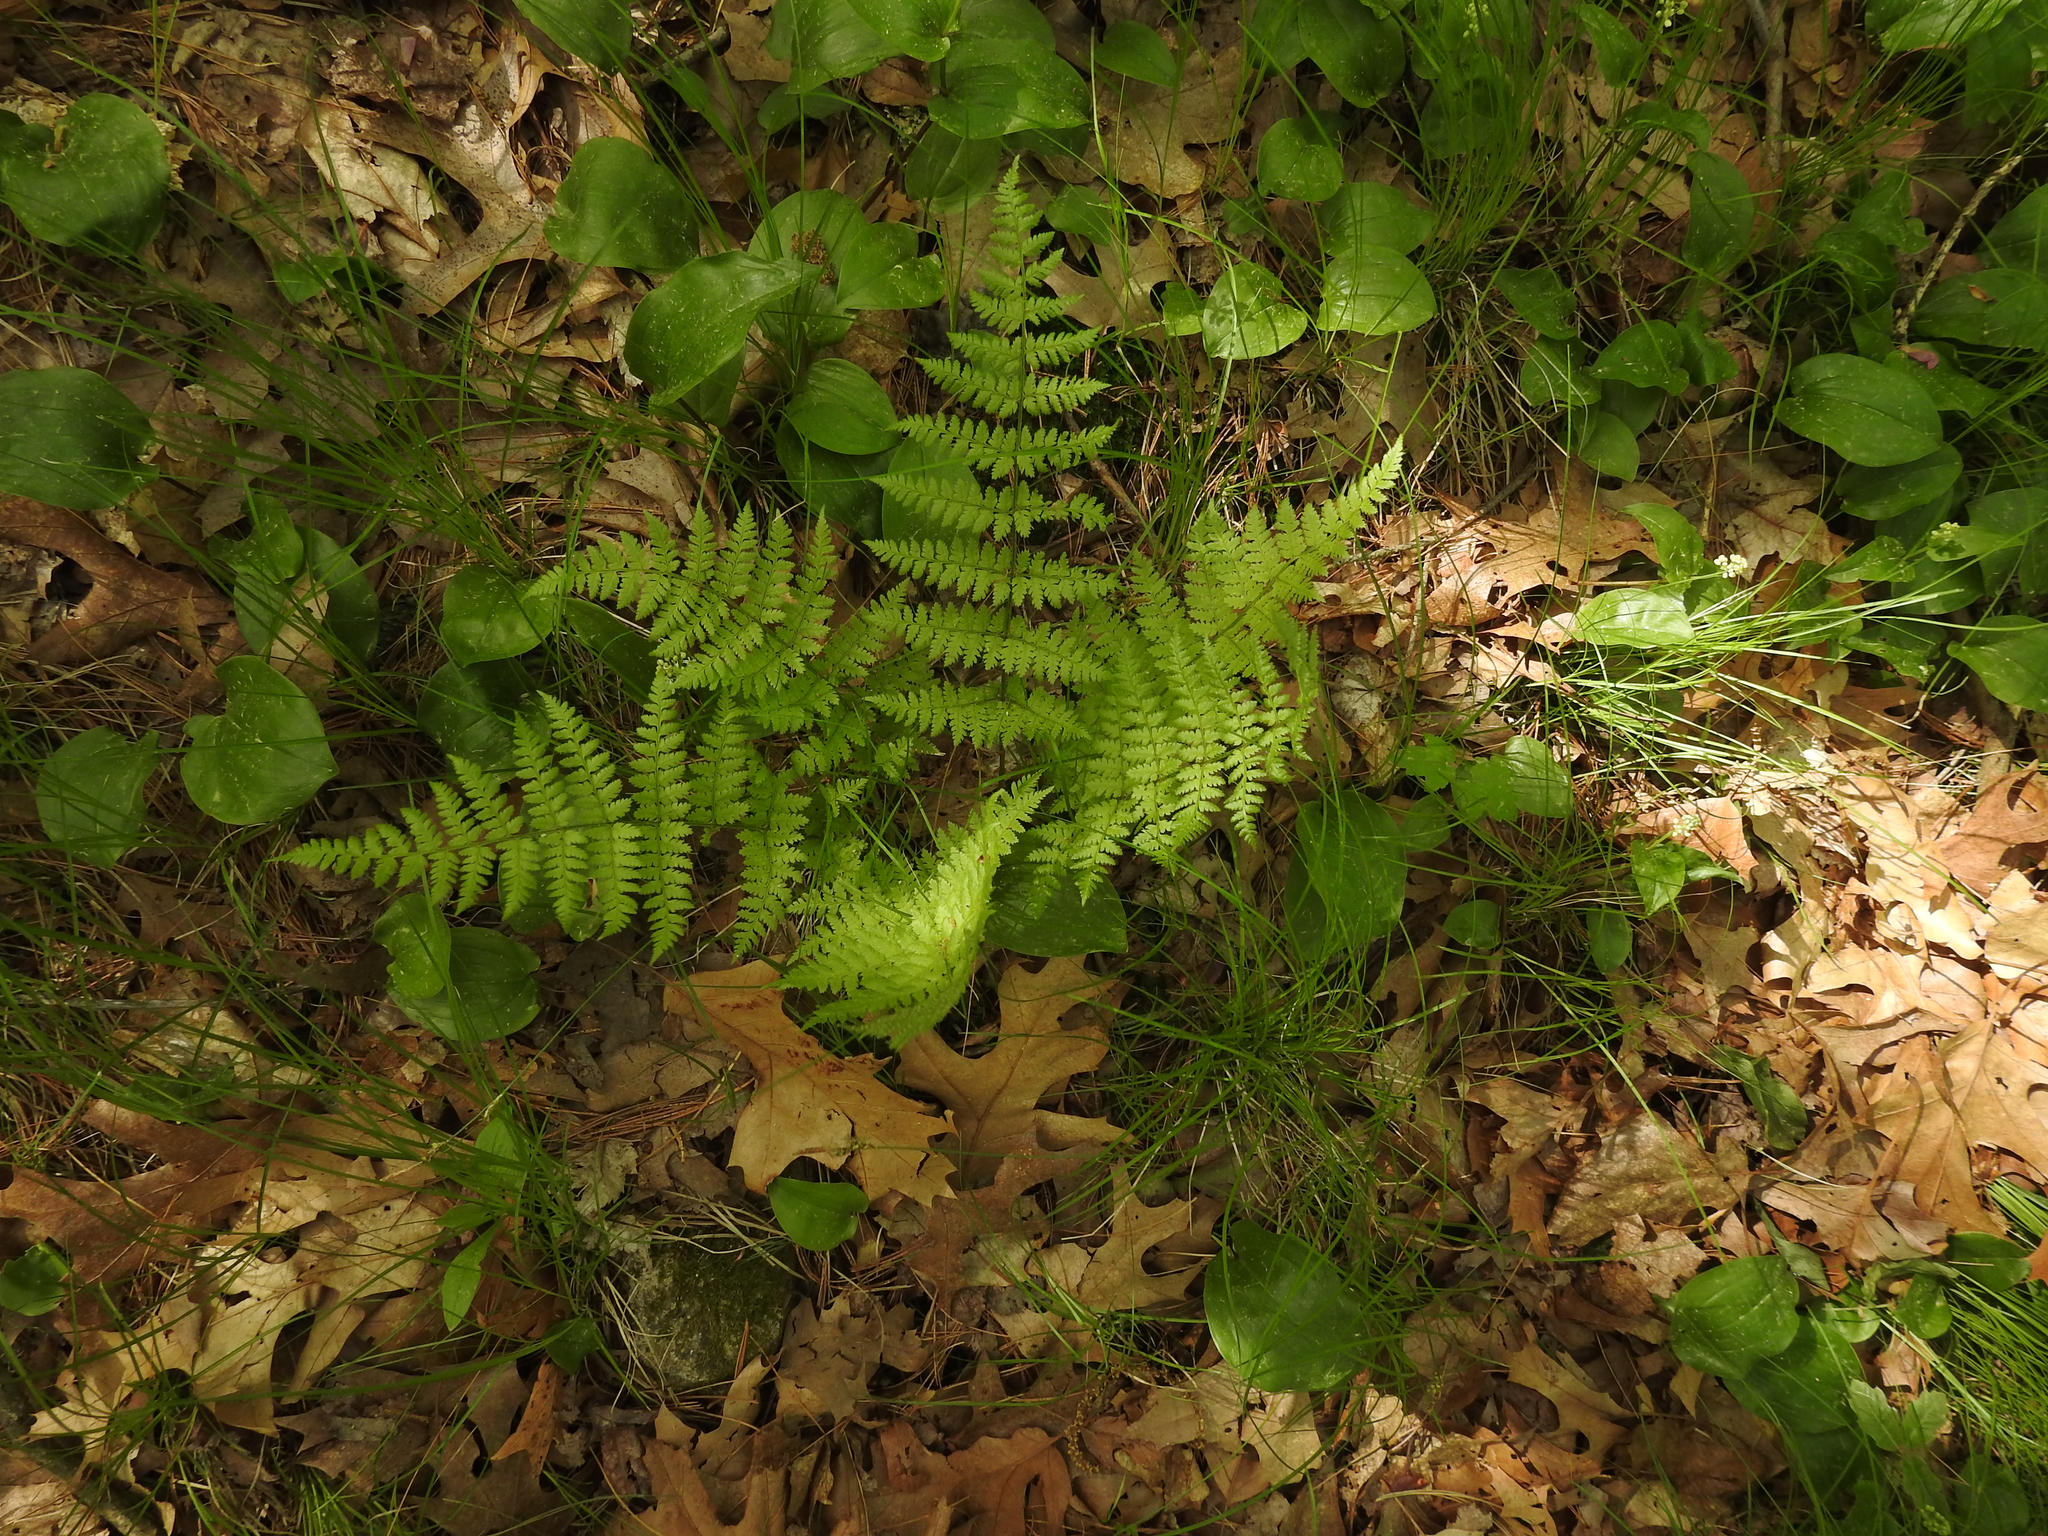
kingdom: Plantae
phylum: Tracheophyta
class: Polypodiopsida
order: Polypodiales
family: Dryopteridaceae
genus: Dryopteris
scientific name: Dryopteris intermedia
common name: Evergreen wood fern
